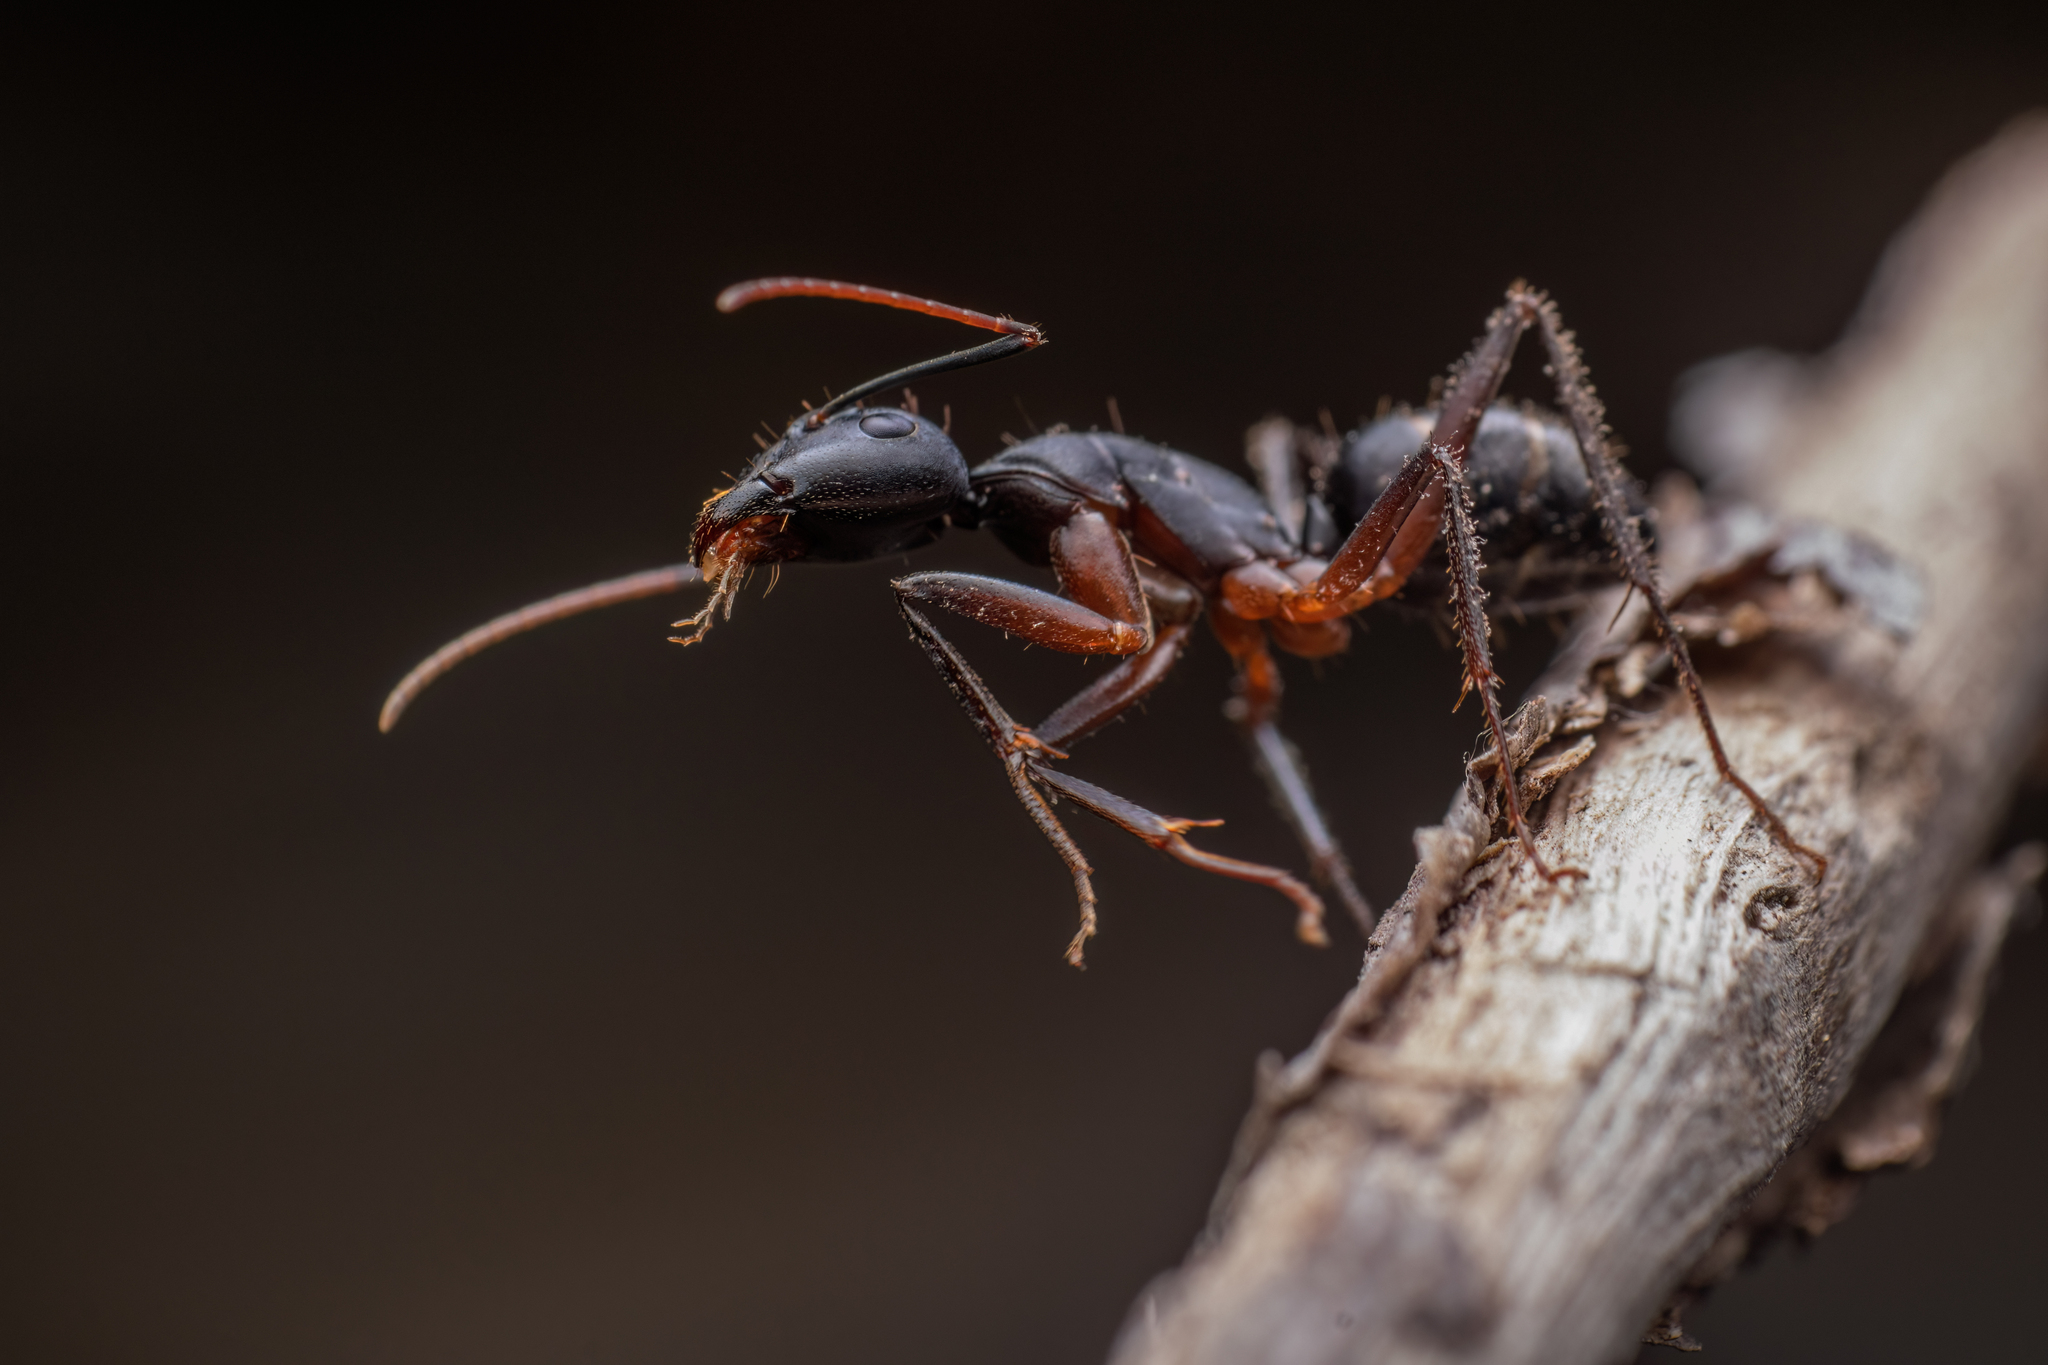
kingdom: Animalia
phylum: Arthropoda
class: Insecta
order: Hymenoptera
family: Formicidae
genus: Camponotus
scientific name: Camponotus compressus
